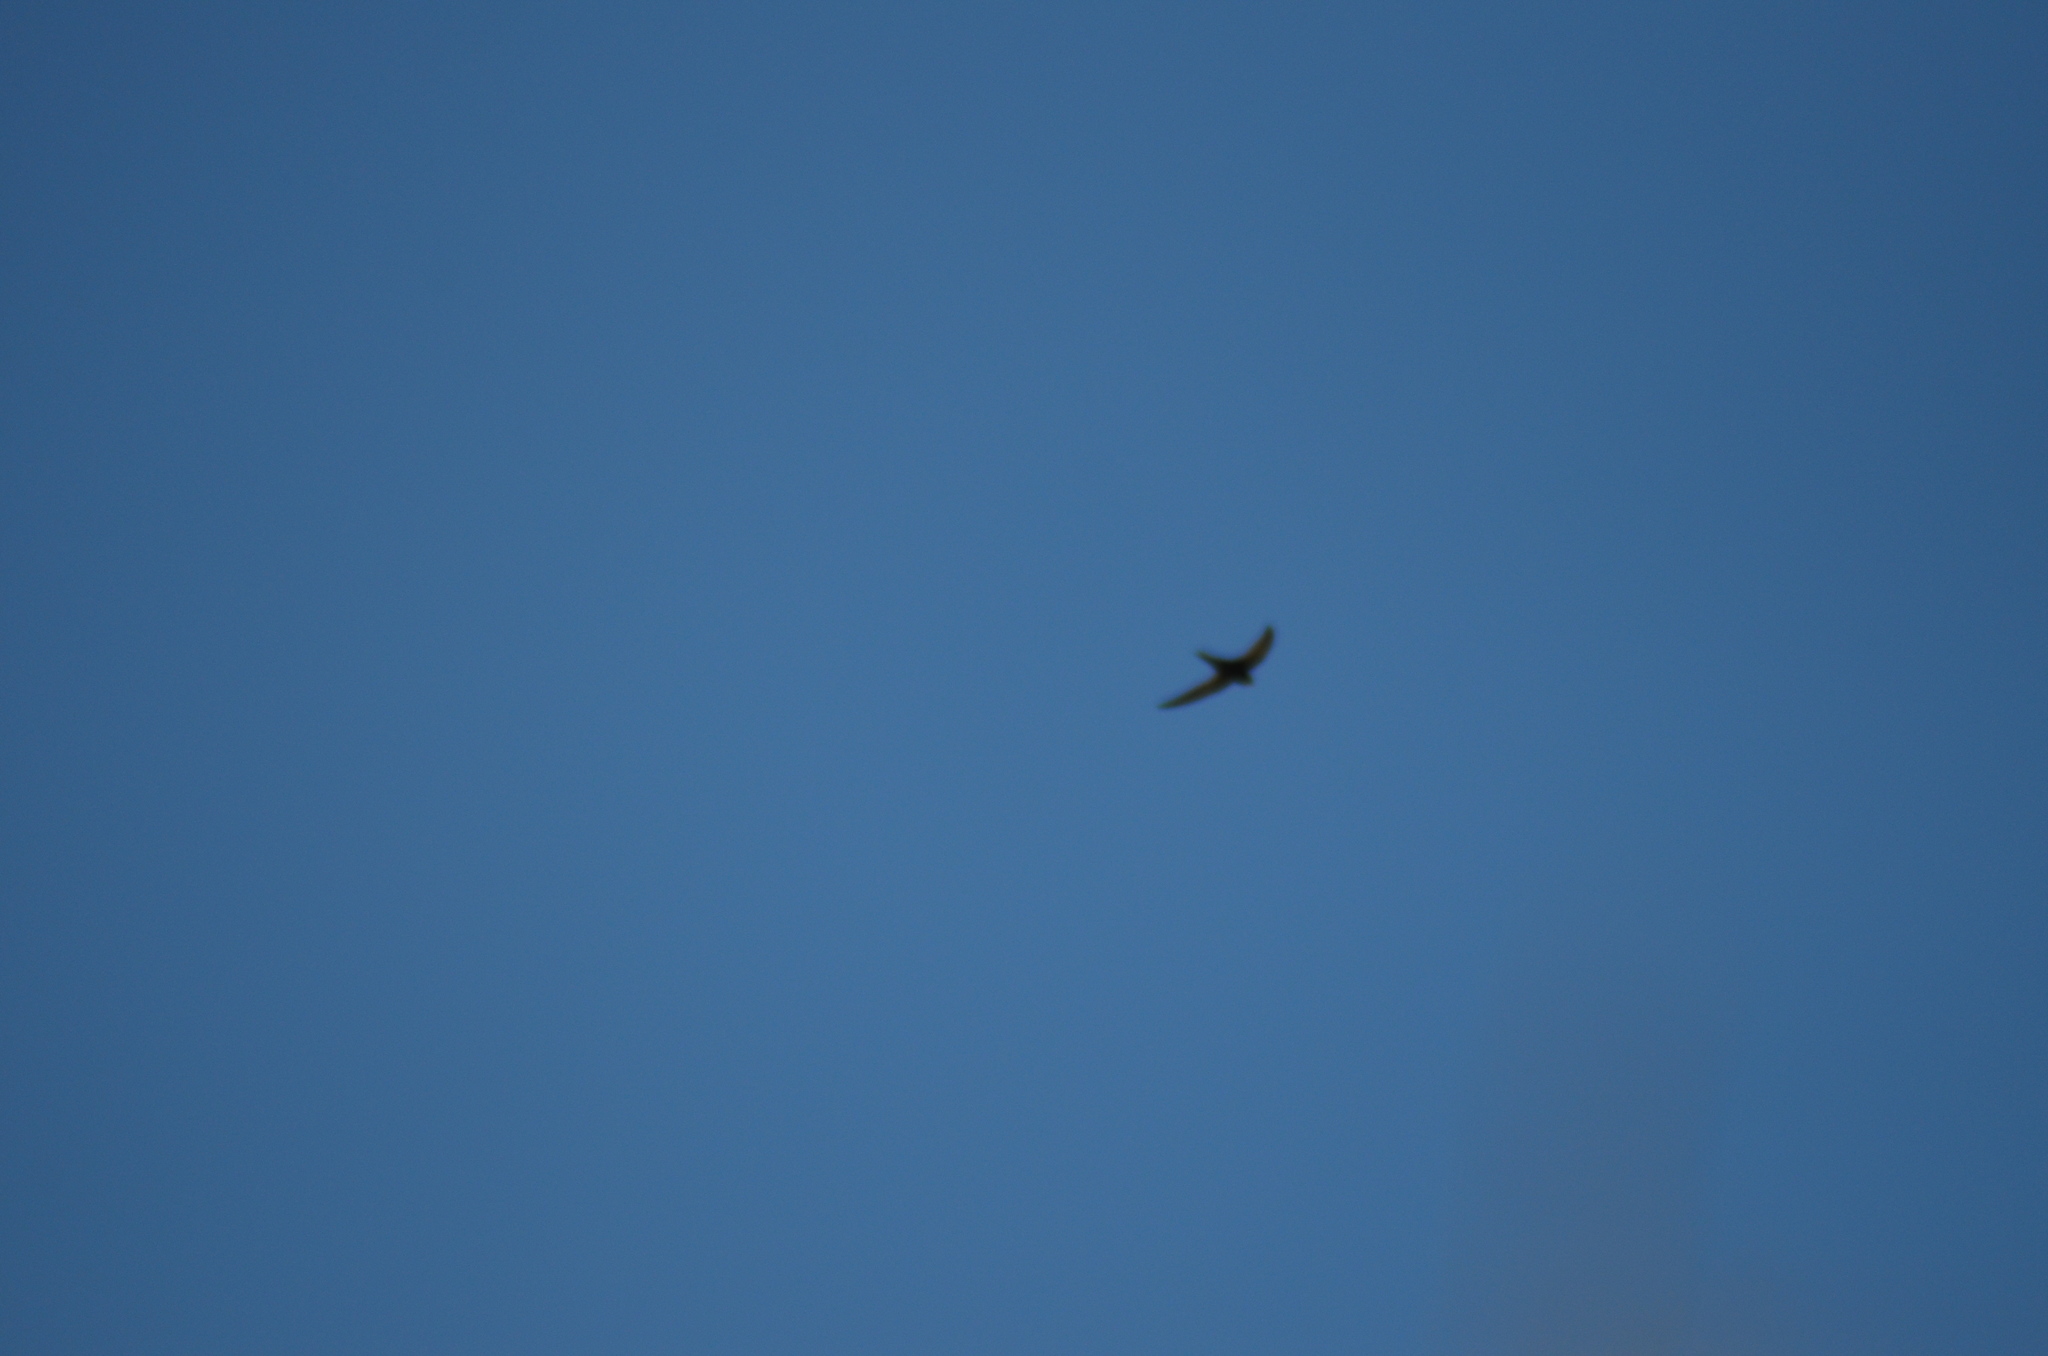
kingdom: Animalia
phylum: Chordata
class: Aves
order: Apodiformes
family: Apodidae
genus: Apus
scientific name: Apus apus
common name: Common swift
